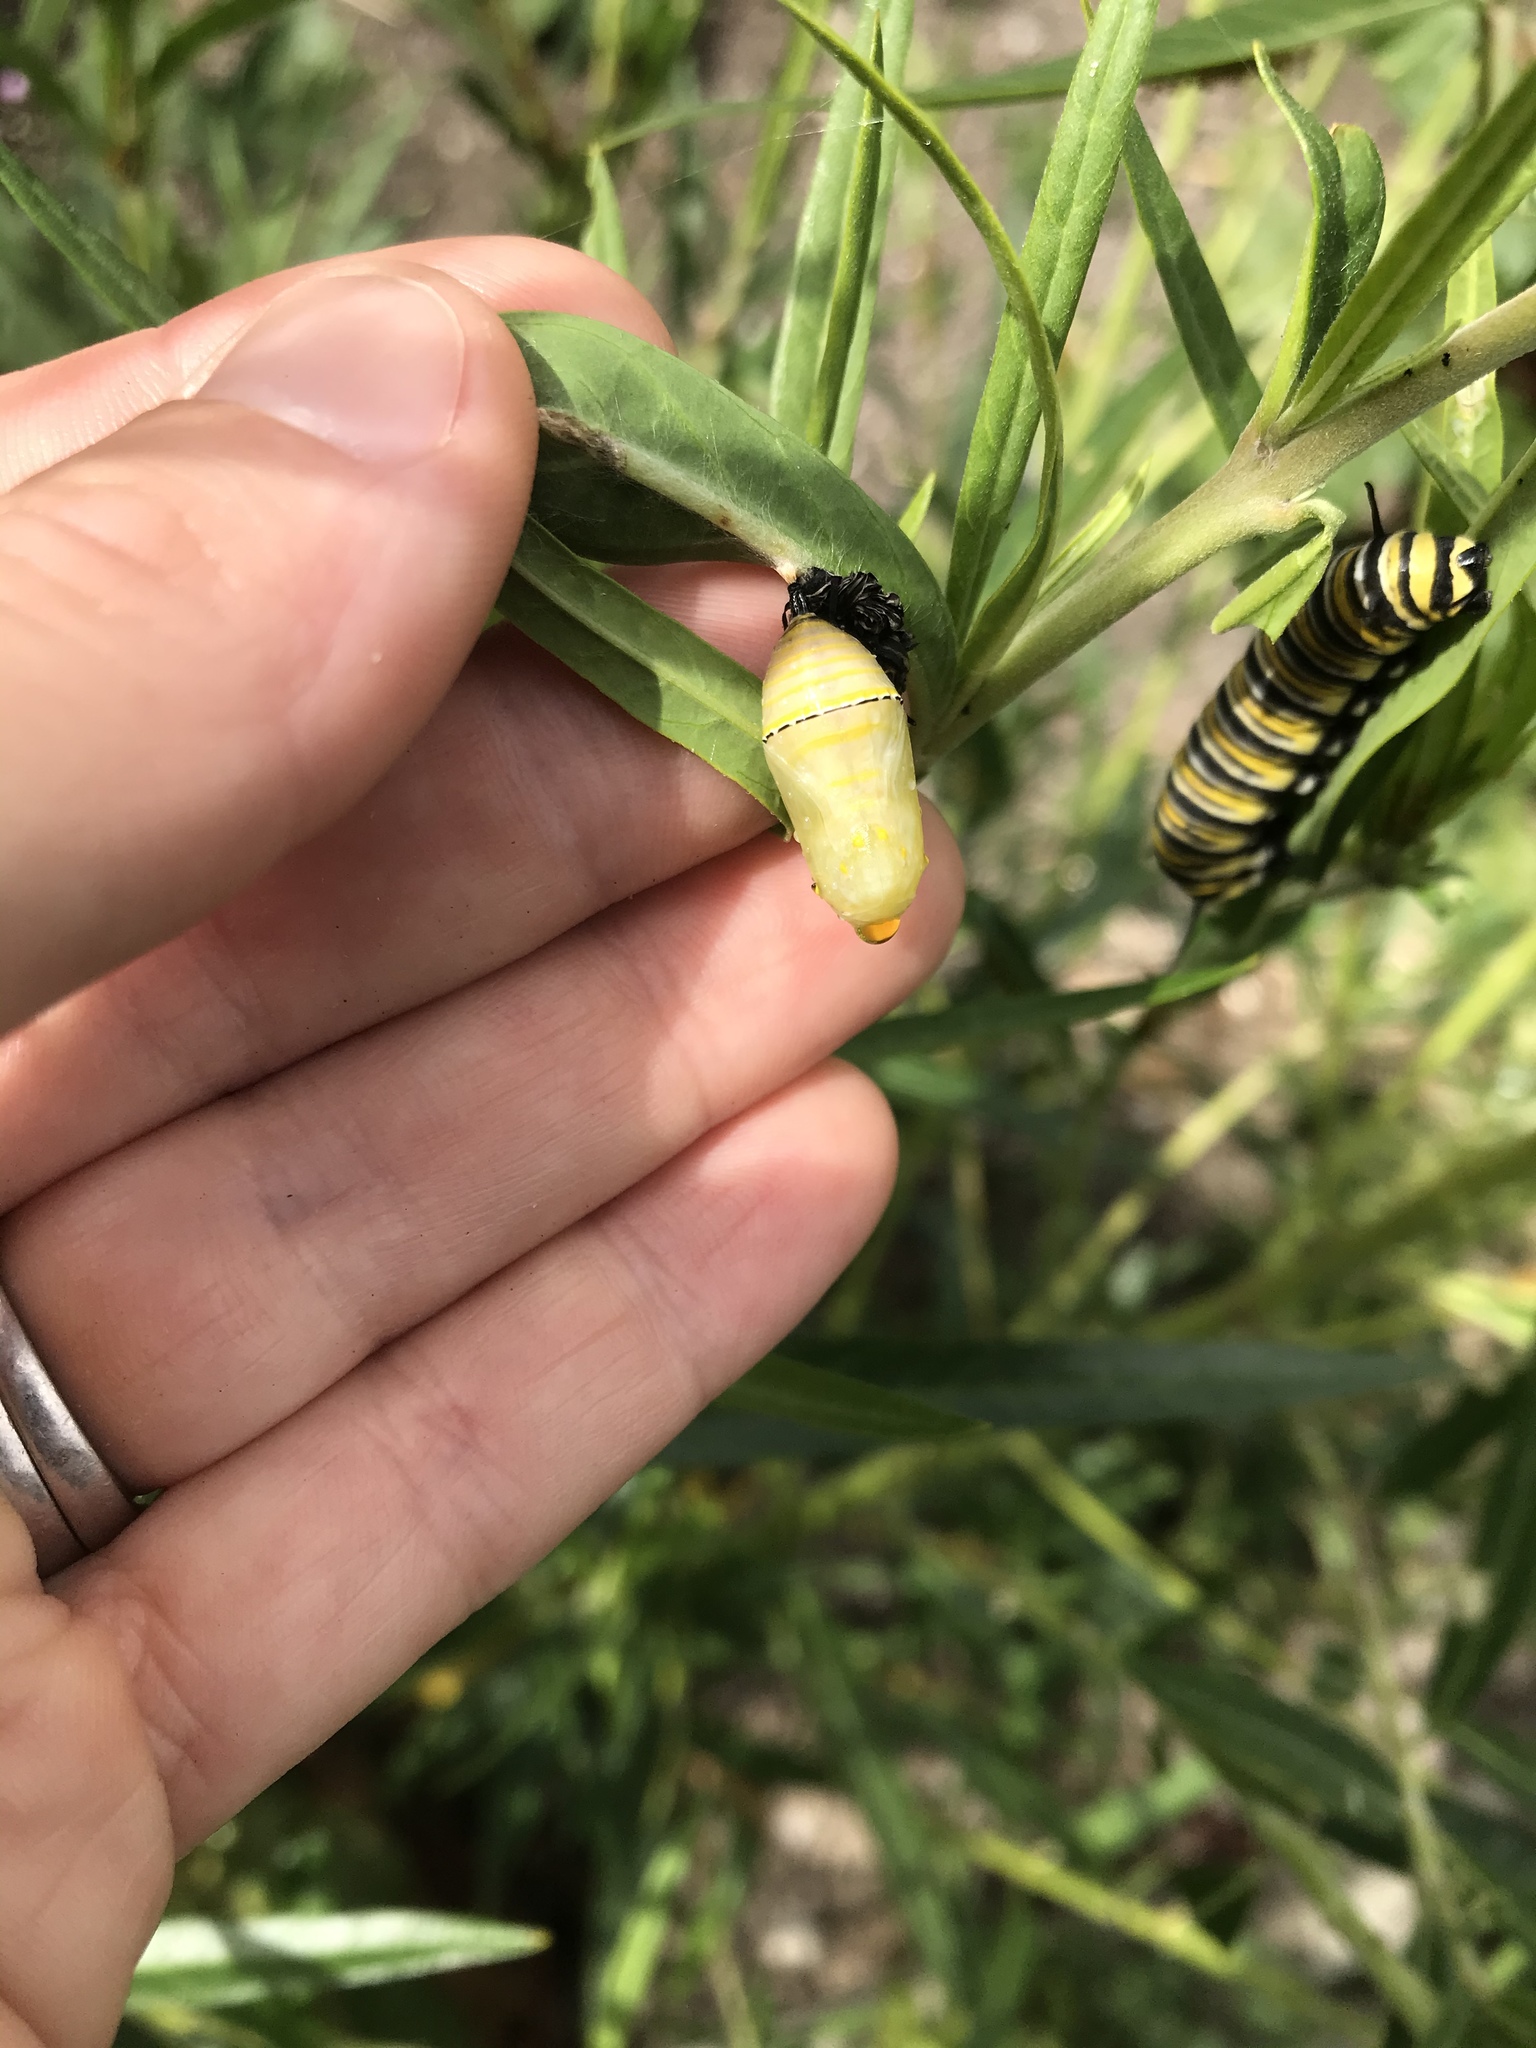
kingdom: Animalia
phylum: Arthropoda
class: Insecta
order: Lepidoptera
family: Nymphalidae
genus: Danaus
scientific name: Danaus plexippus
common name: Monarch
